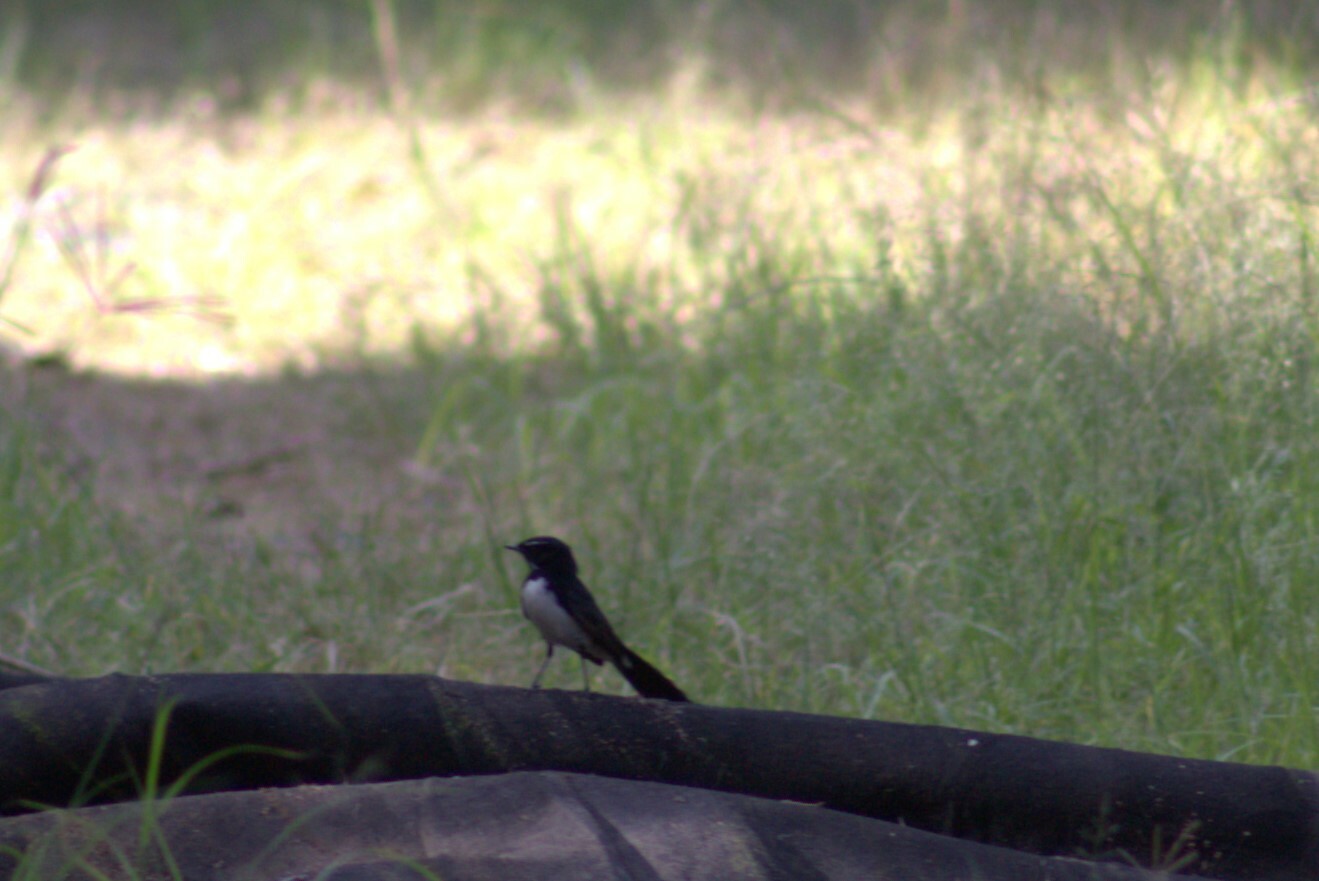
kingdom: Animalia
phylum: Chordata
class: Aves
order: Passeriformes
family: Rhipiduridae
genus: Rhipidura
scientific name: Rhipidura leucophrys
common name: Willie wagtail
